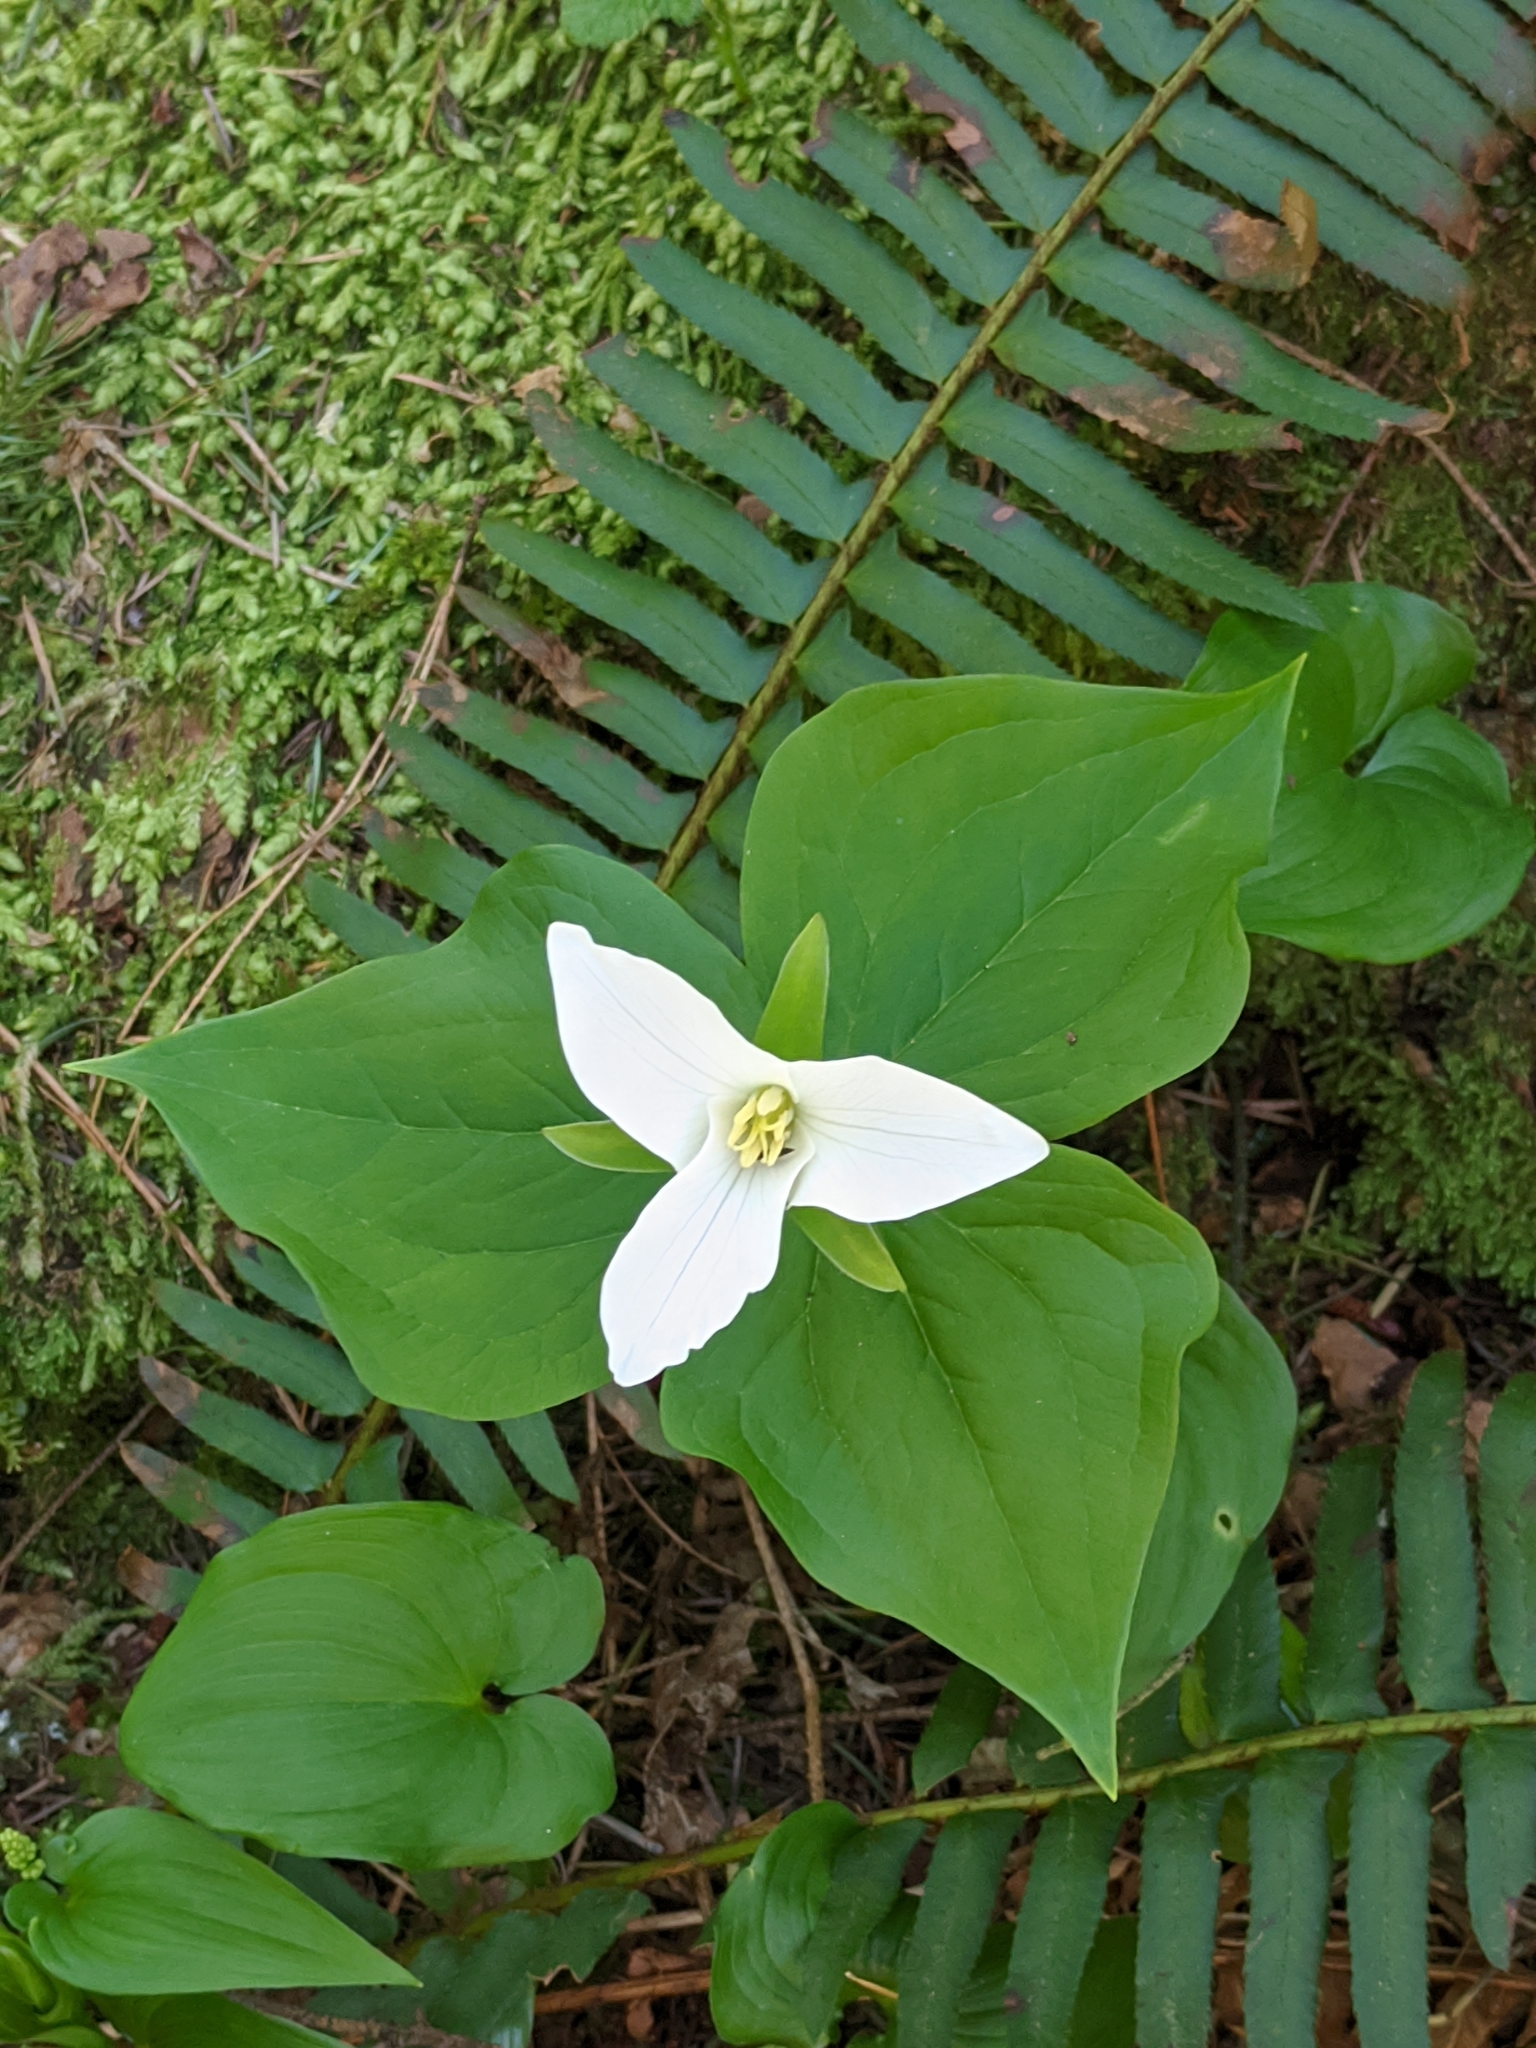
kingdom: Plantae
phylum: Tracheophyta
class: Liliopsida
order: Liliales
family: Melanthiaceae
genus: Trillium
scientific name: Trillium ovatum
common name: Pacific trillium
